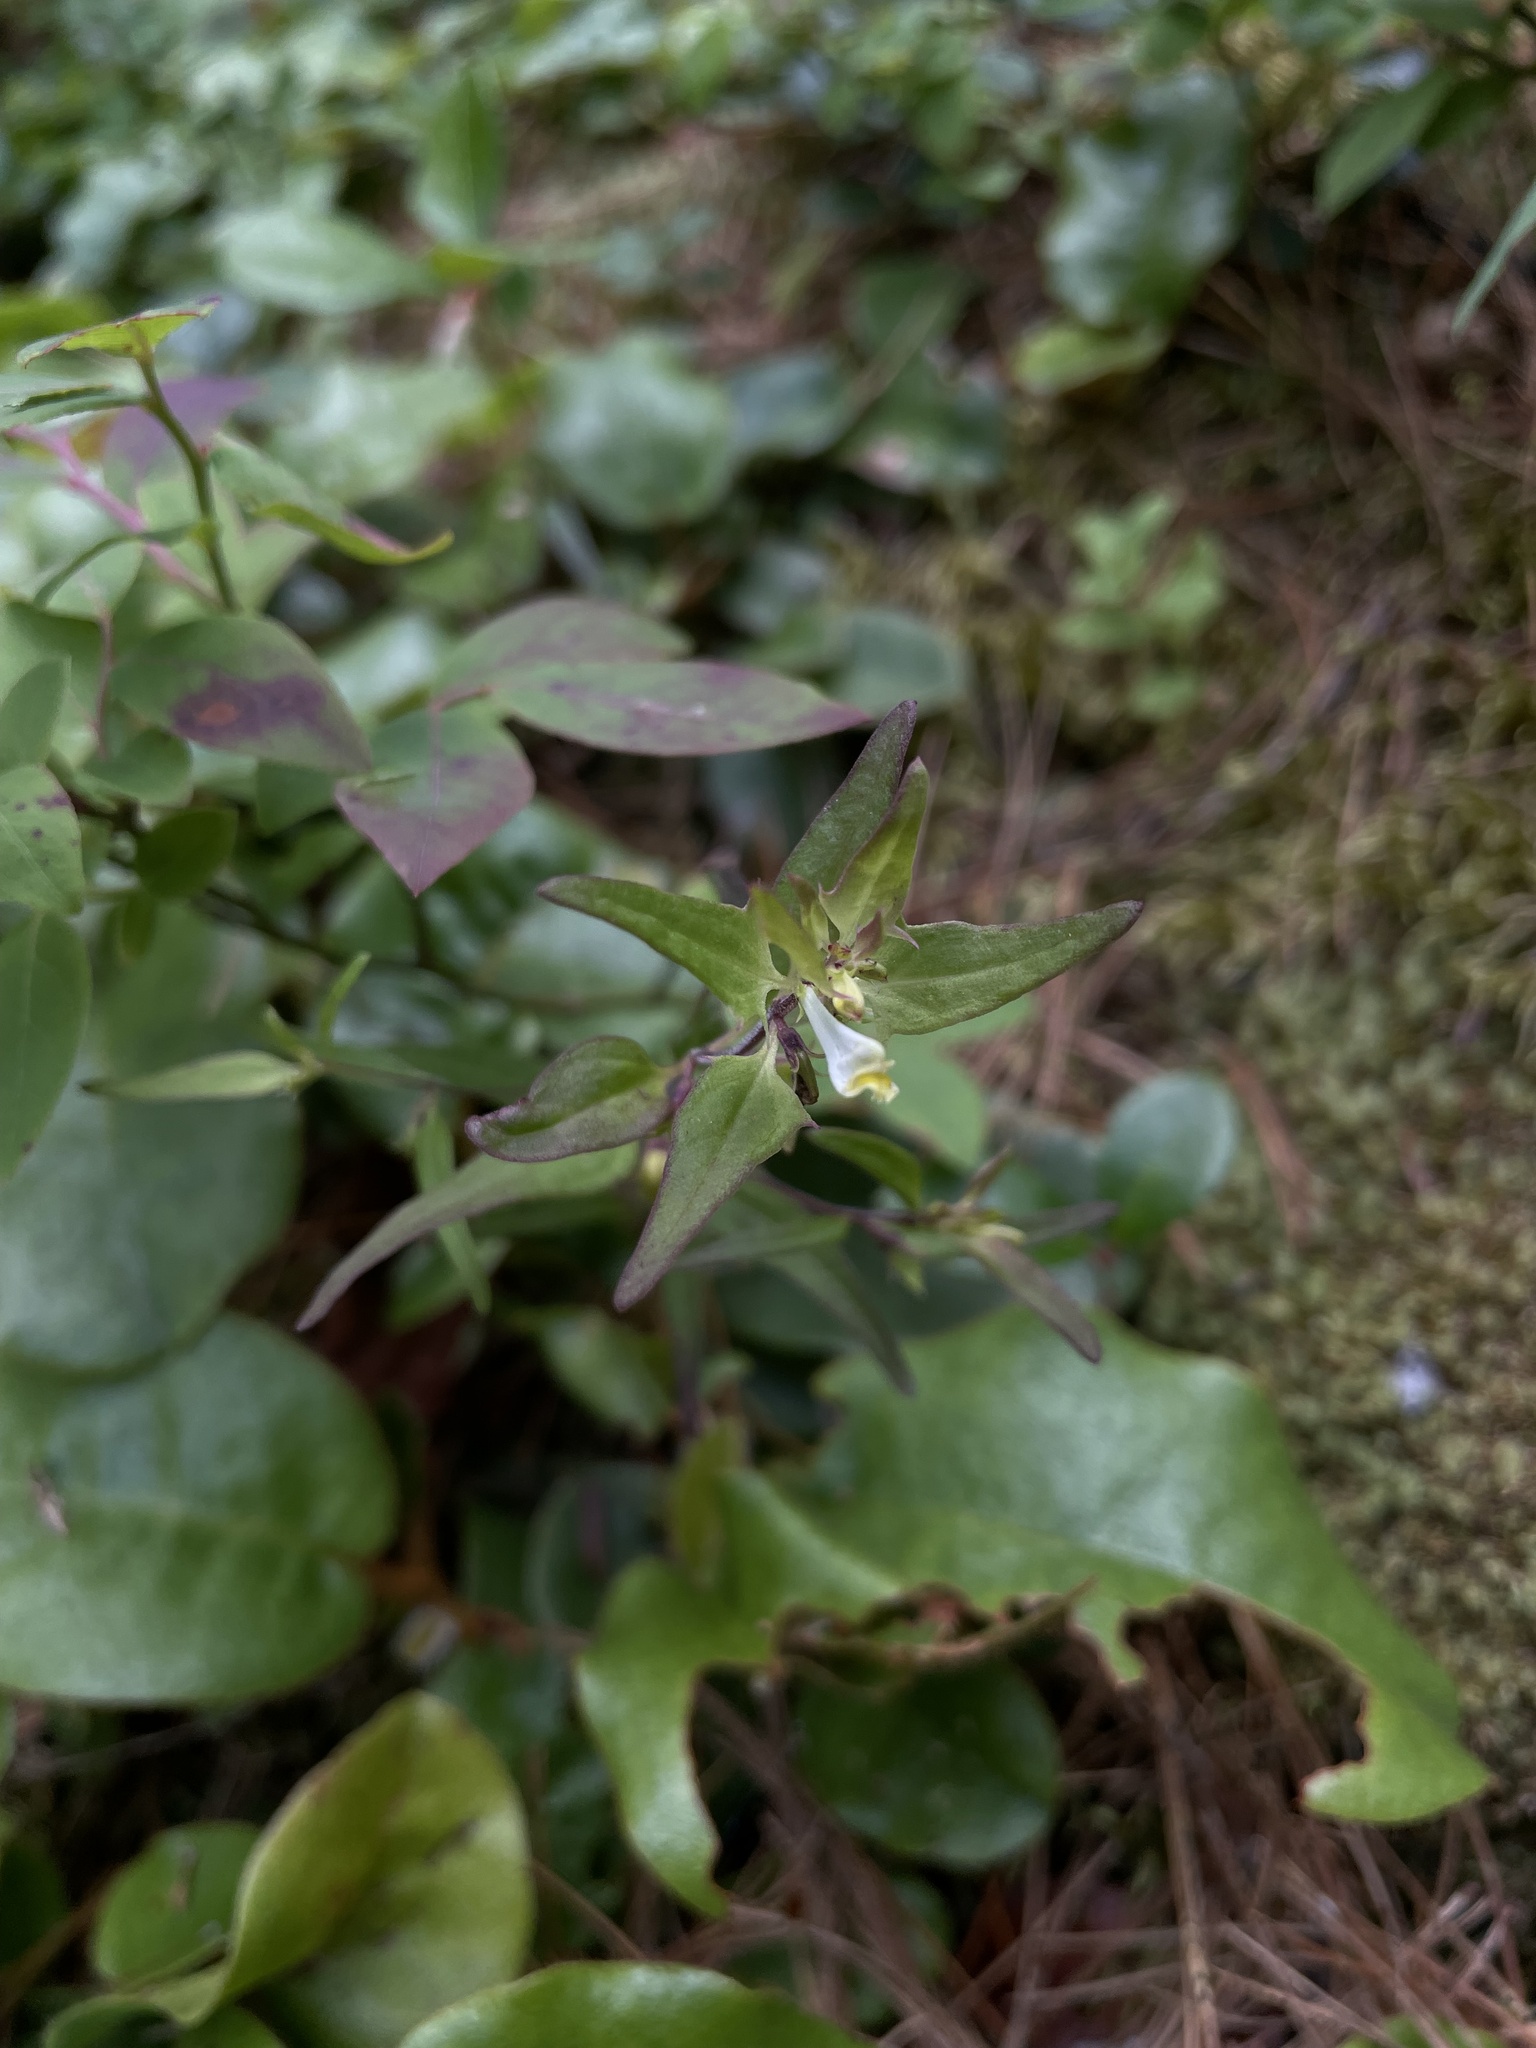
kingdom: Plantae
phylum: Tracheophyta
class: Magnoliopsida
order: Lamiales
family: Orobanchaceae
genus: Melampyrum
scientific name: Melampyrum lineare
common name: American cow-wheat
